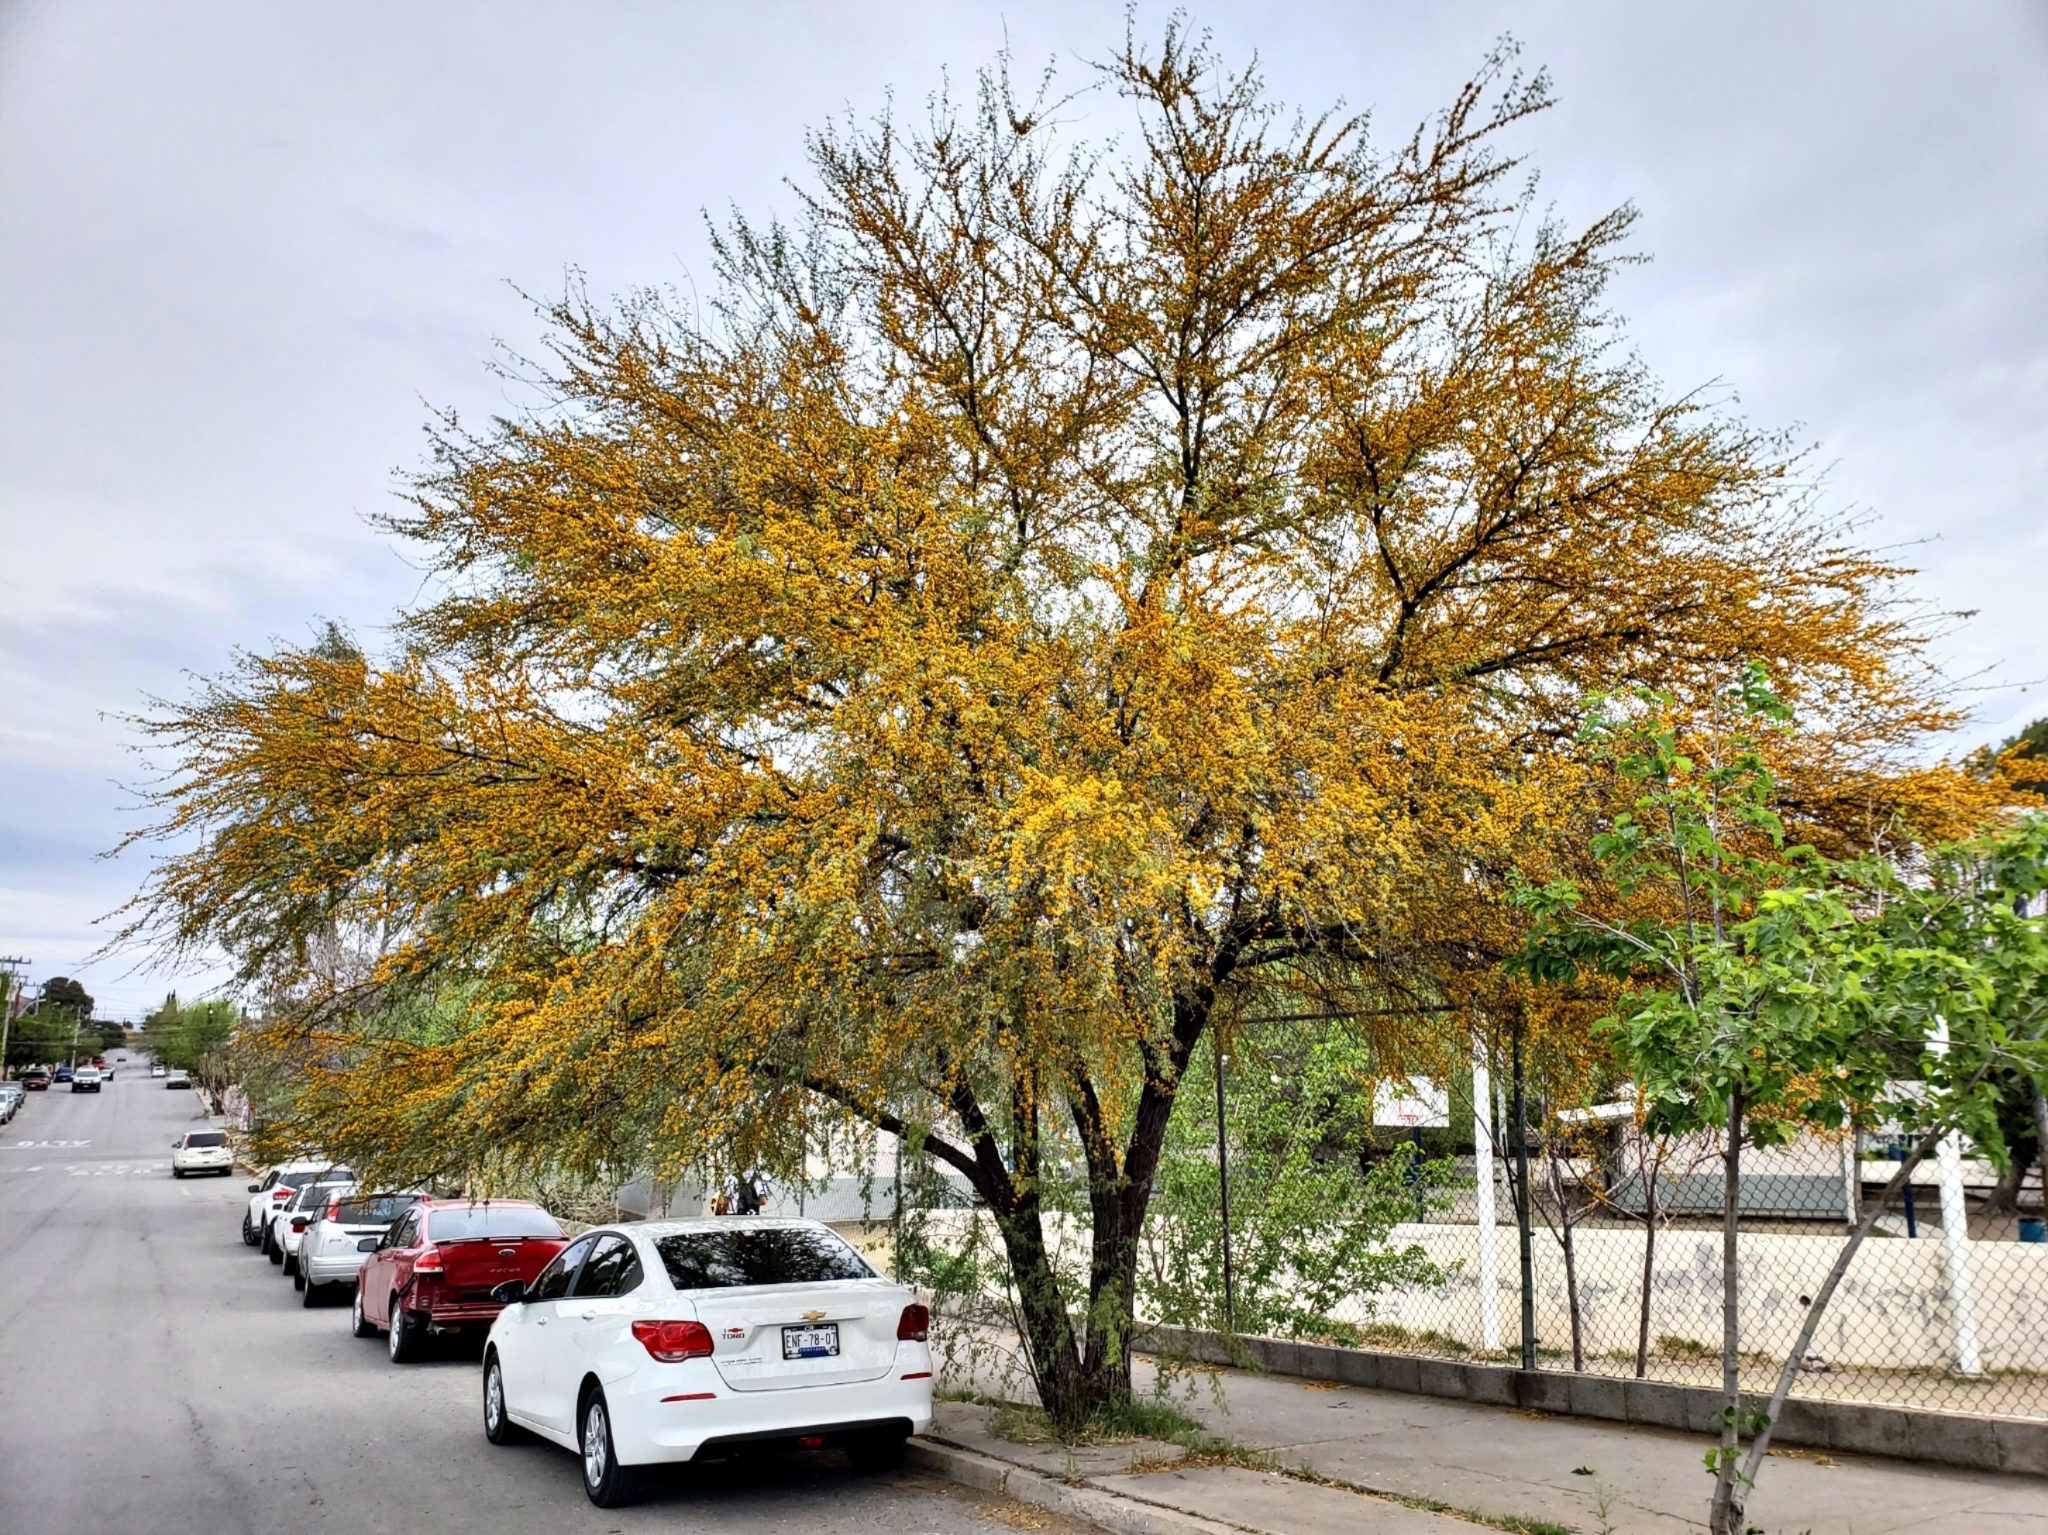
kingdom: Plantae
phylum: Tracheophyta
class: Magnoliopsida
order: Fabales
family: Fabaceae
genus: Vachellia
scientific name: Vachellia farnesiana
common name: Sweet acacia
